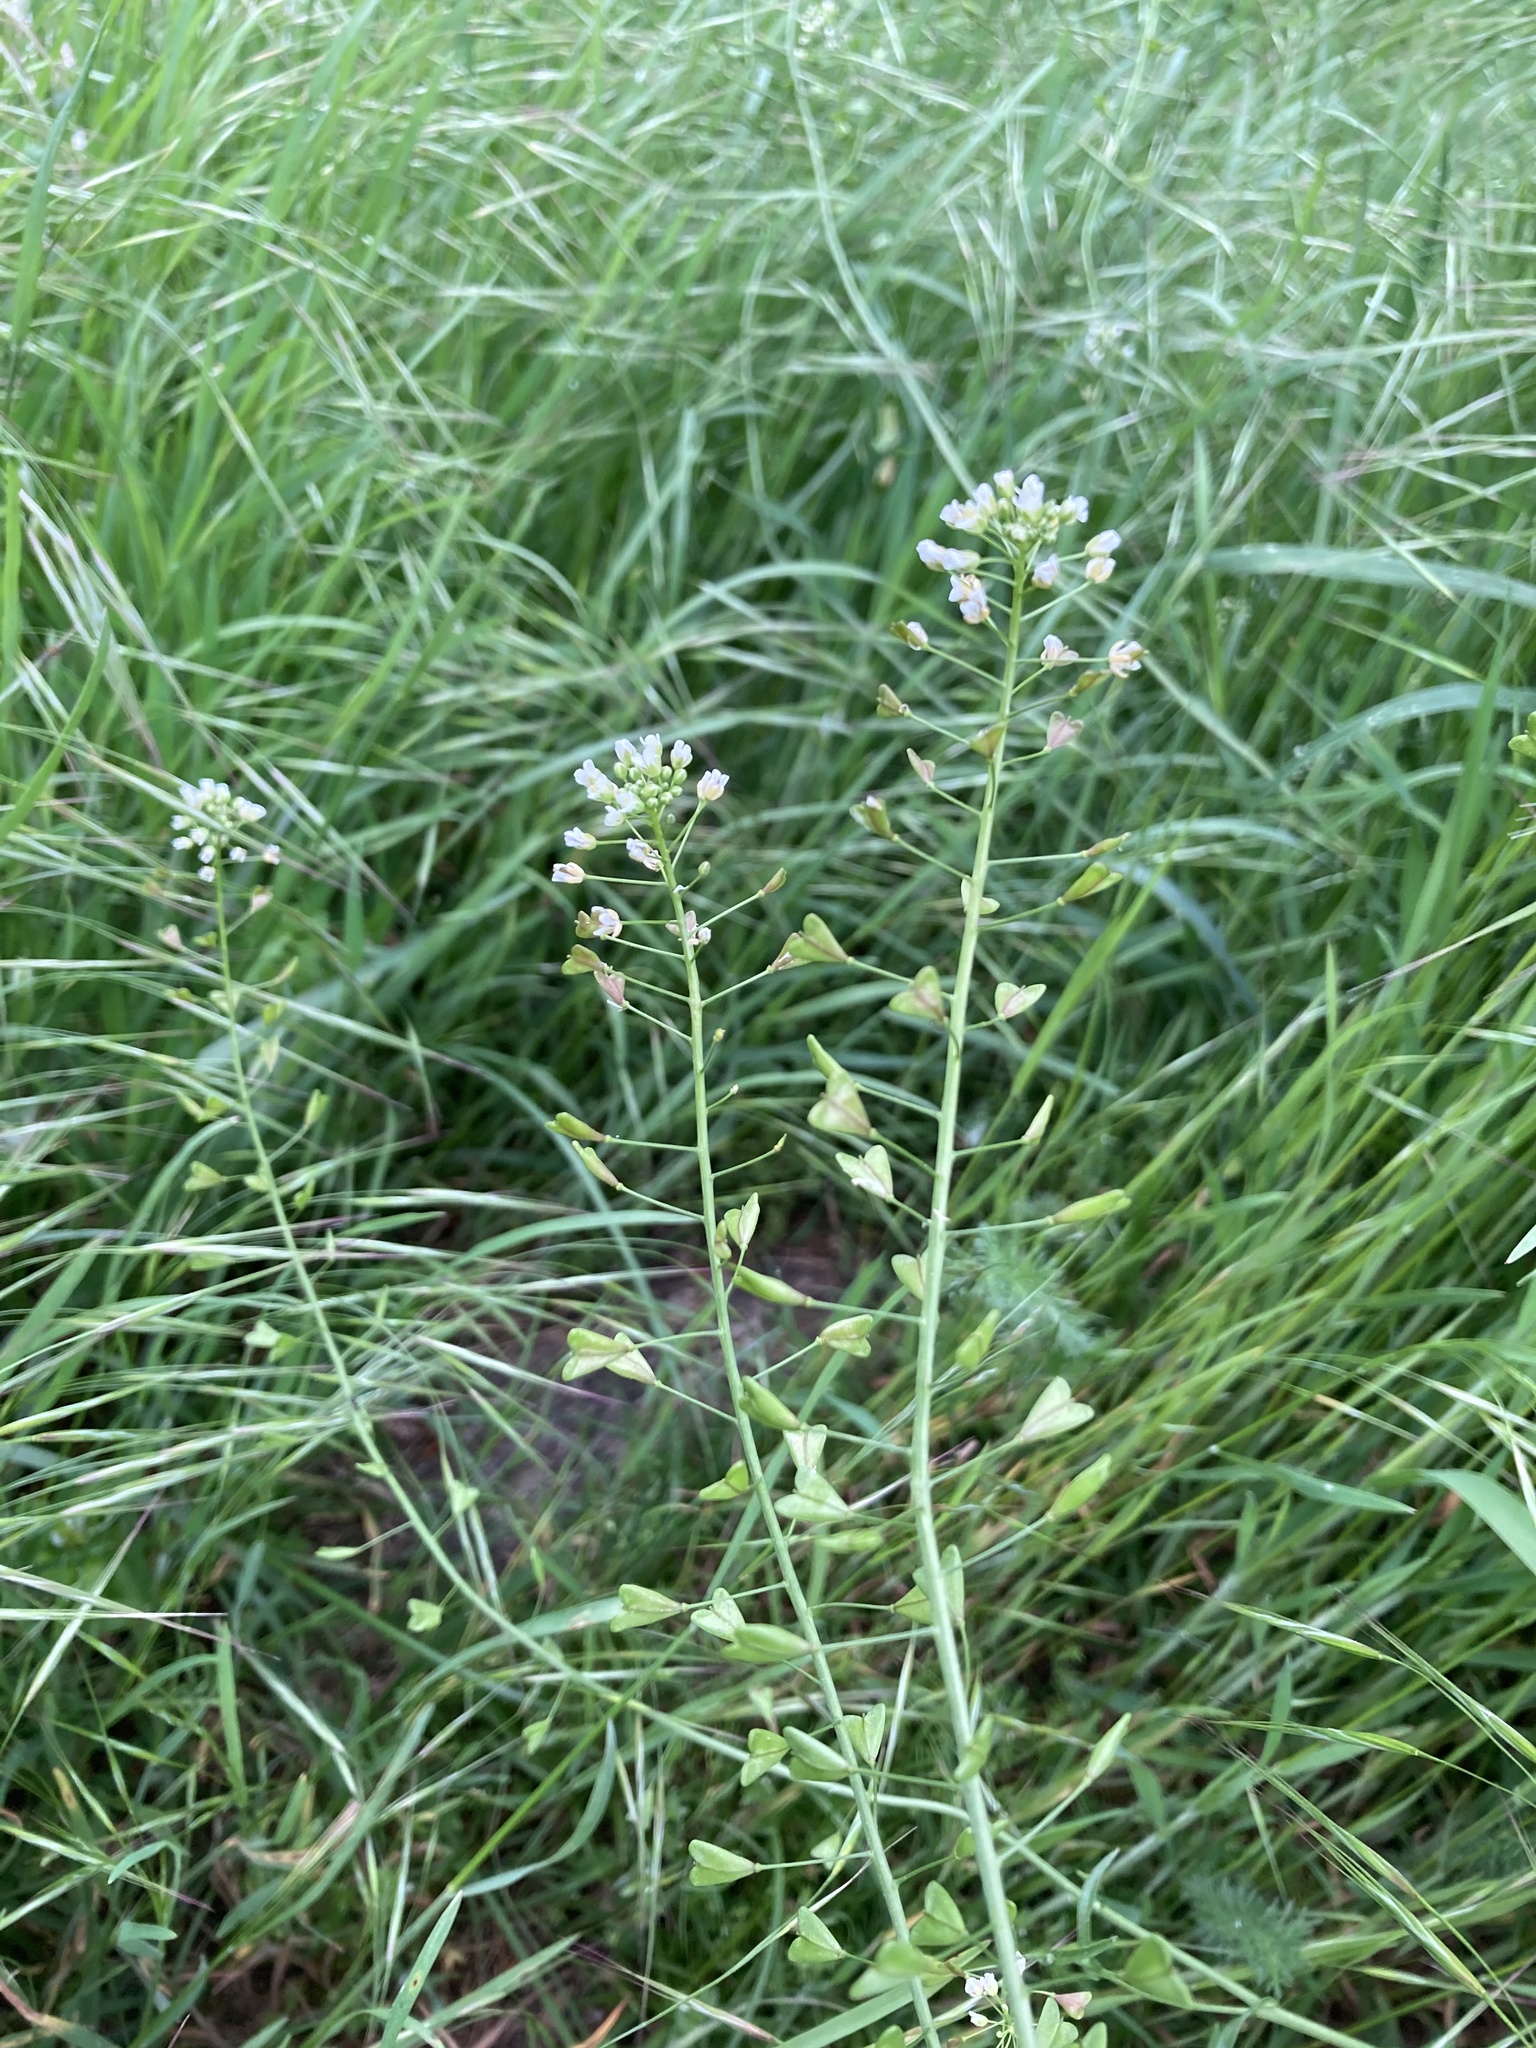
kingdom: Plantae
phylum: Tracheophyta
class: Magnoliopsida
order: Brassicales
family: Brassicaceae
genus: Capsella
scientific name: Capsella bursa-pastoris
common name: Shepherd's purse
